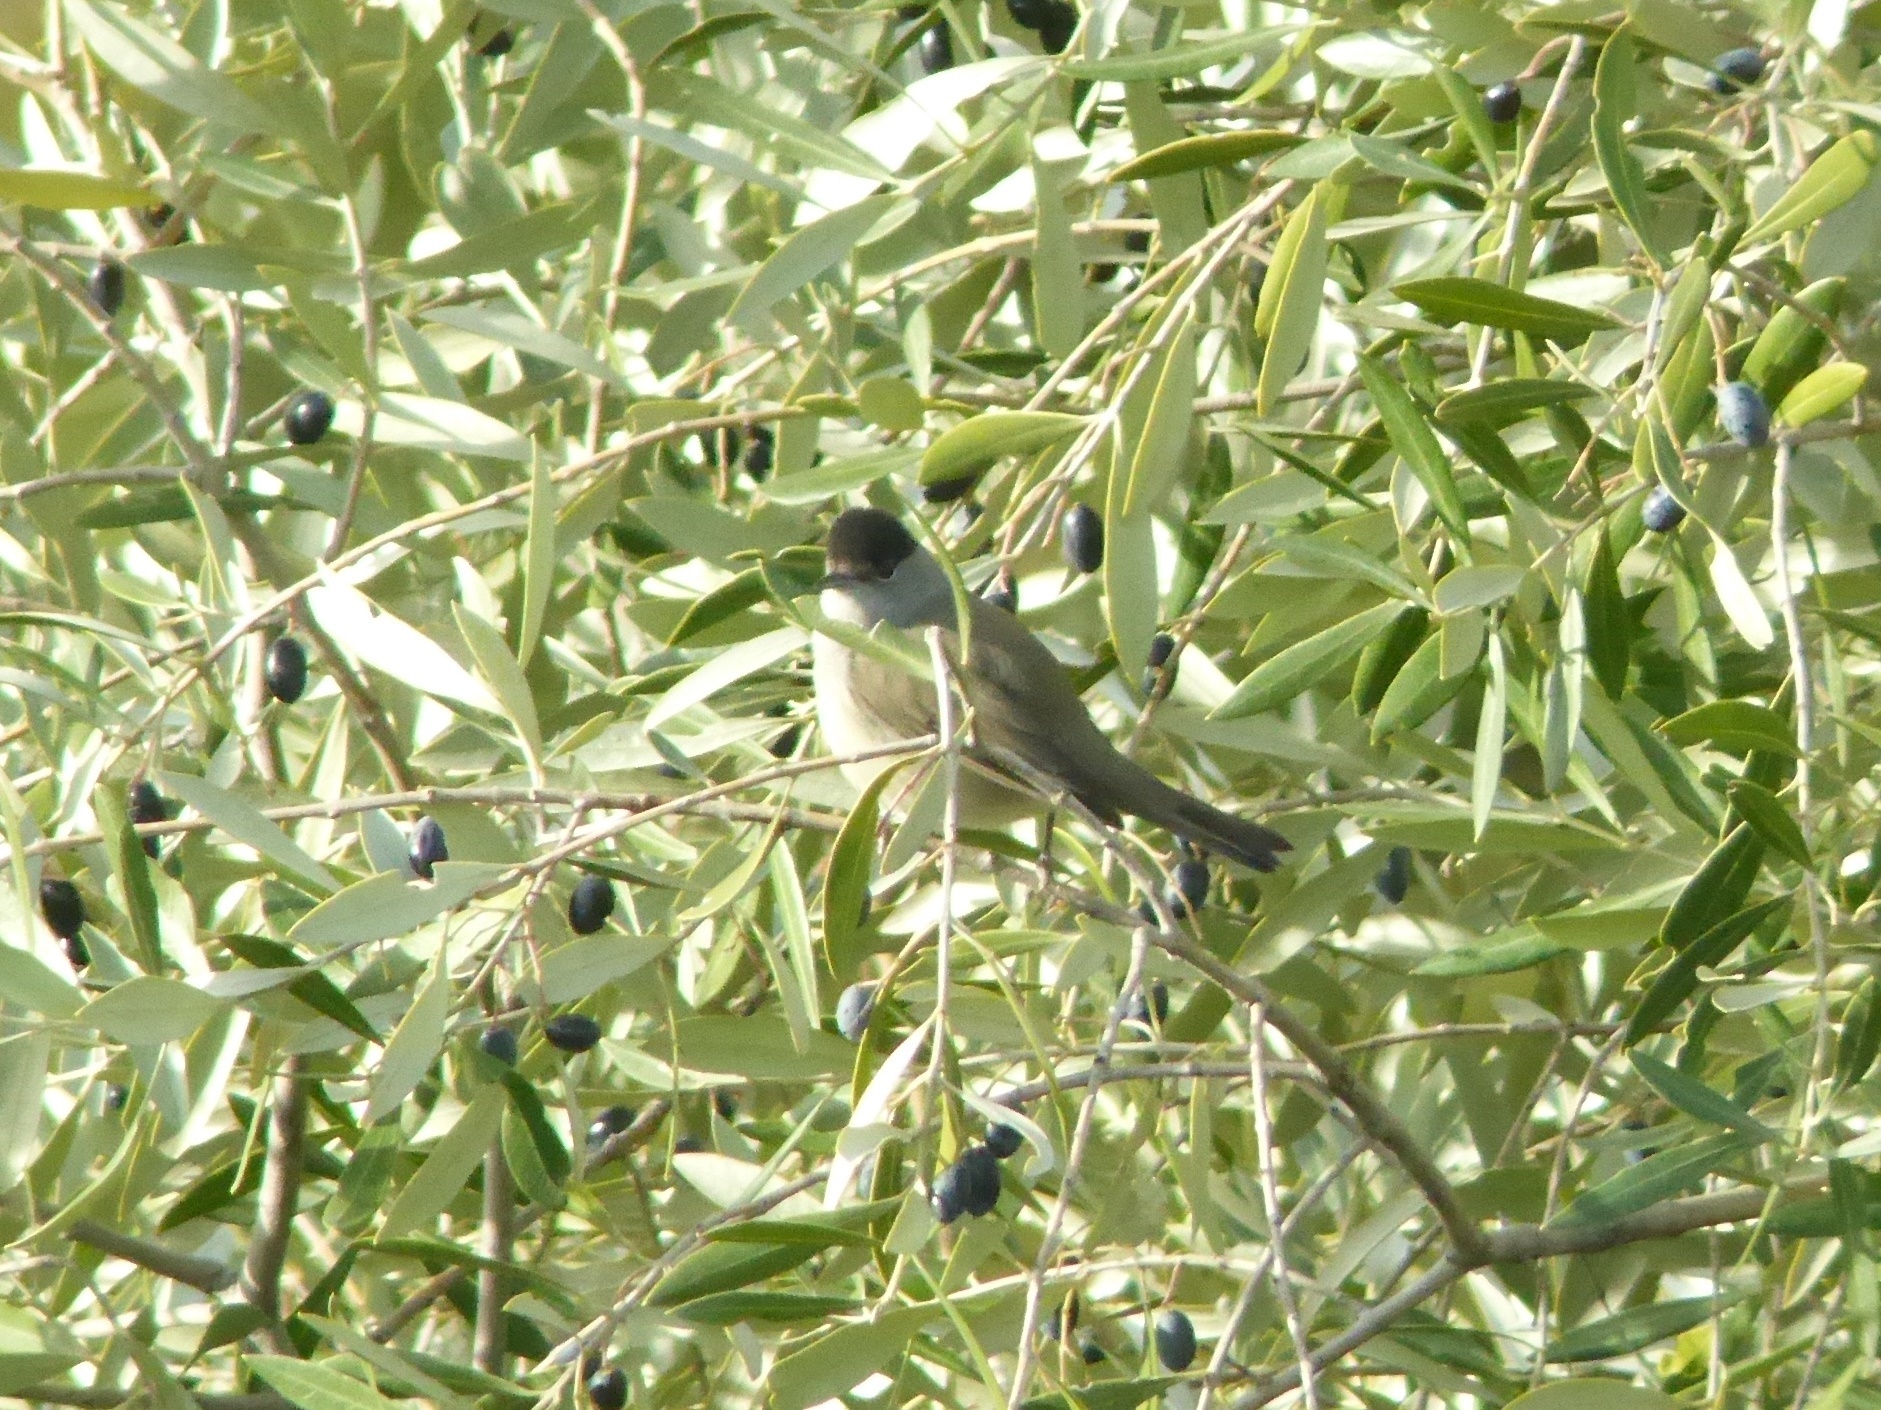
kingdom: Animalia
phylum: Chordata
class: Aves
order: Passeriformes
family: Sylviidae
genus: Sylvia
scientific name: Sylvia atricapilla
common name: Eurasian blackcap
